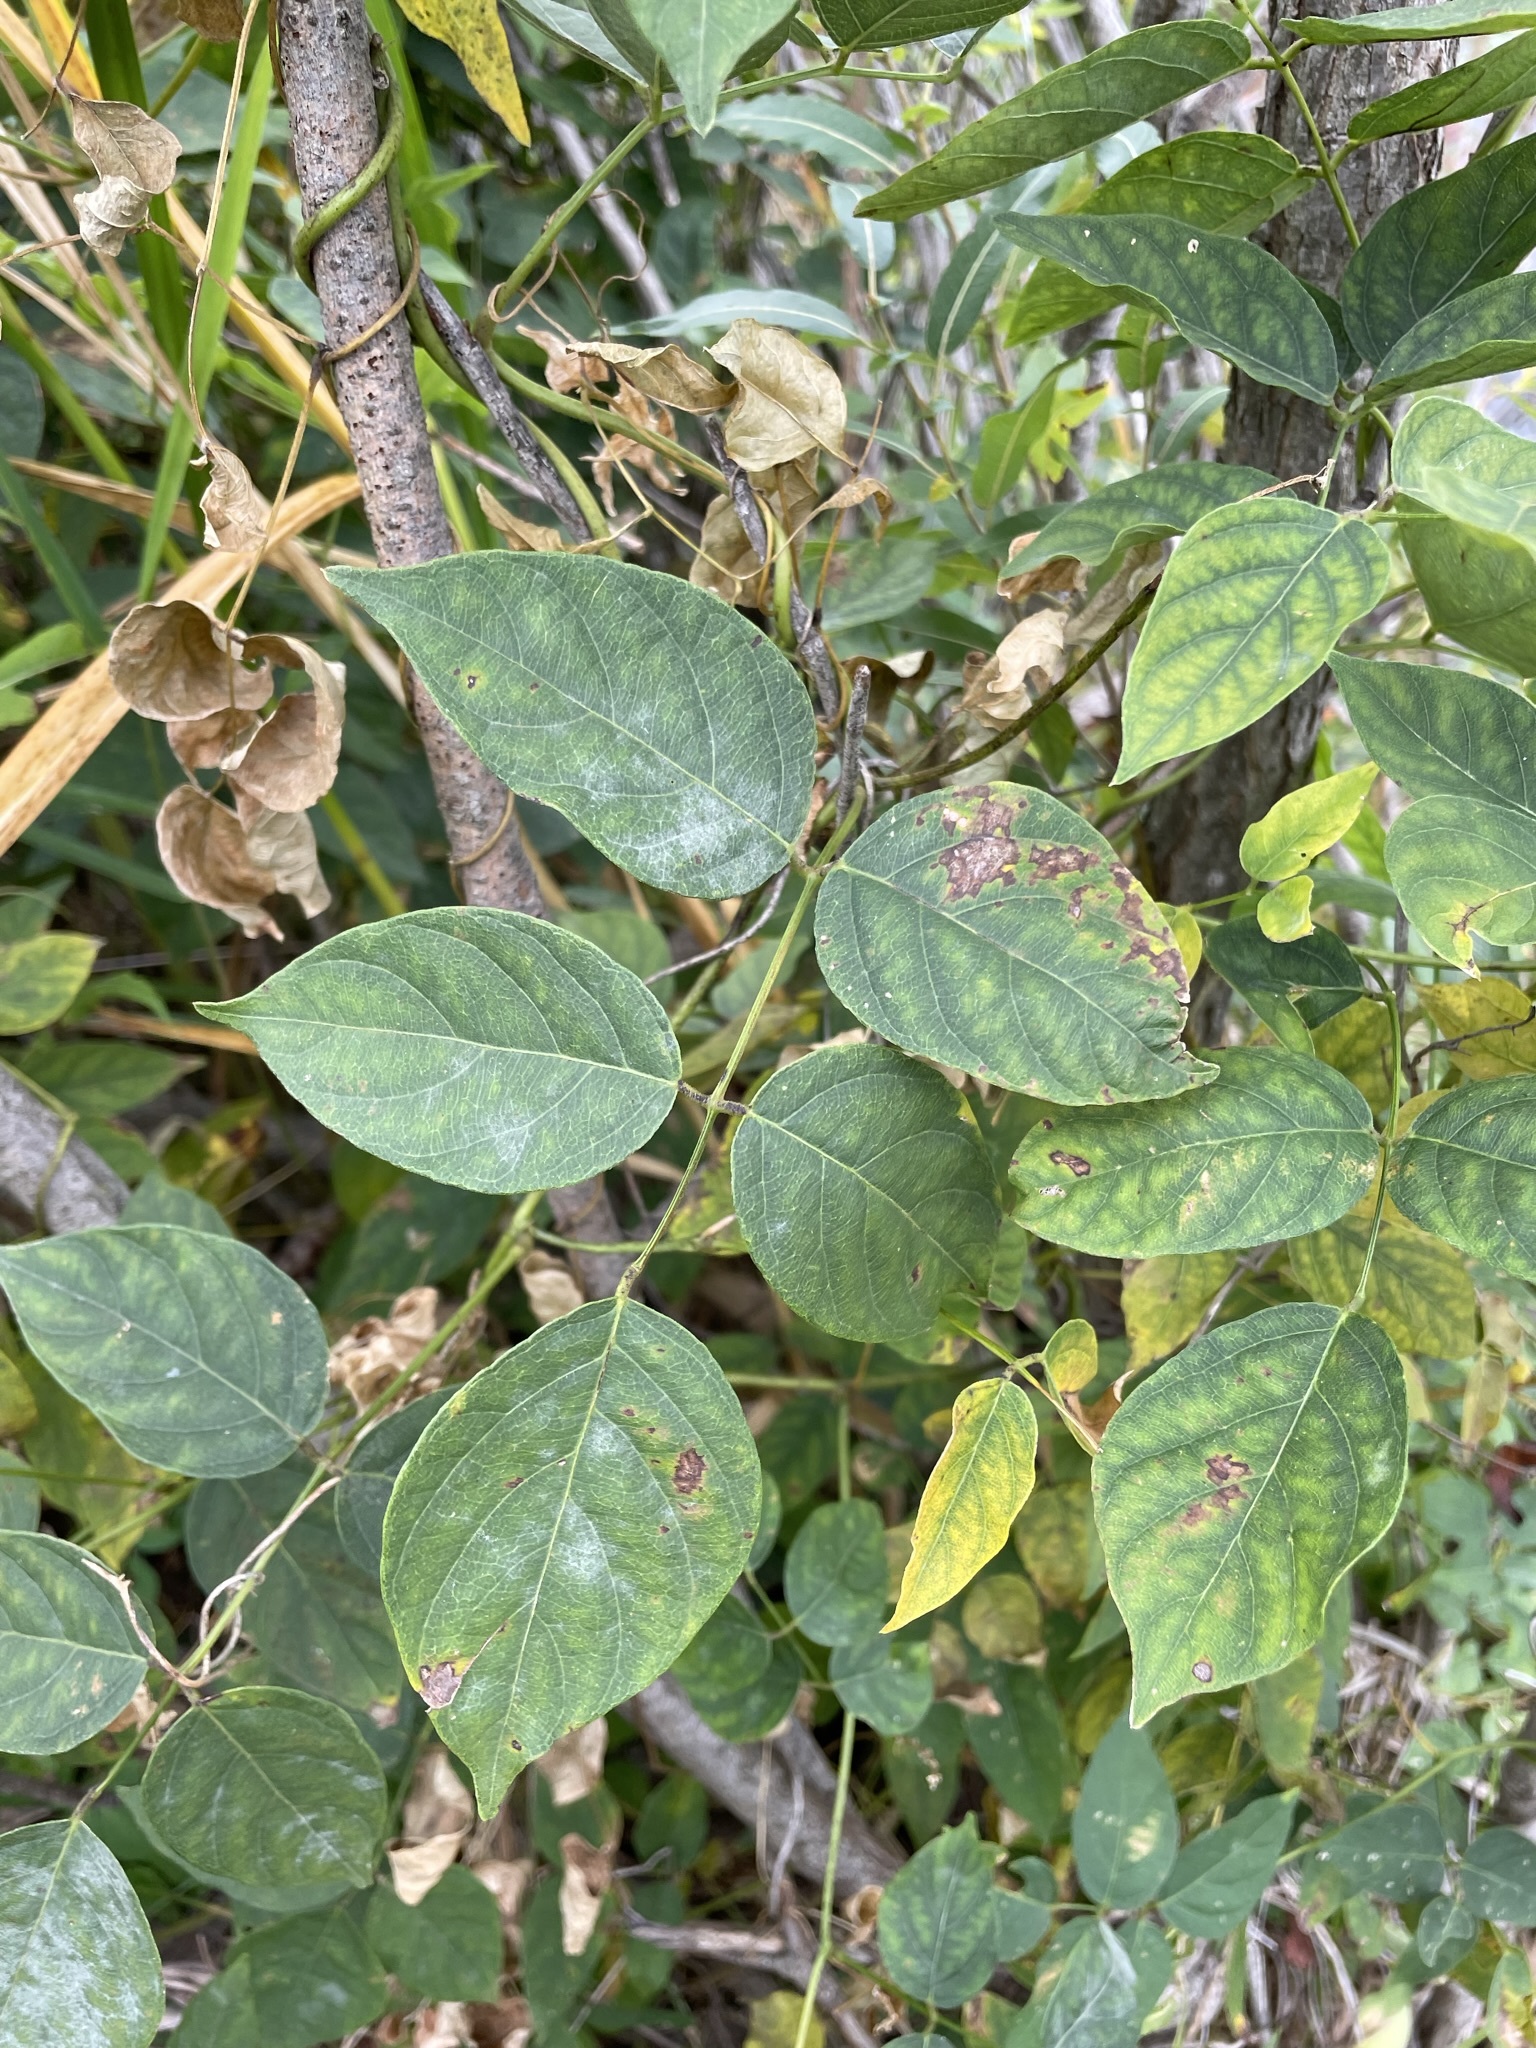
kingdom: Plantae
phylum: Tracheophyta
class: Magnoliopsida
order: Fabales
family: Fabaceae
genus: Apios
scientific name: Apios americana
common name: American potato-bean
